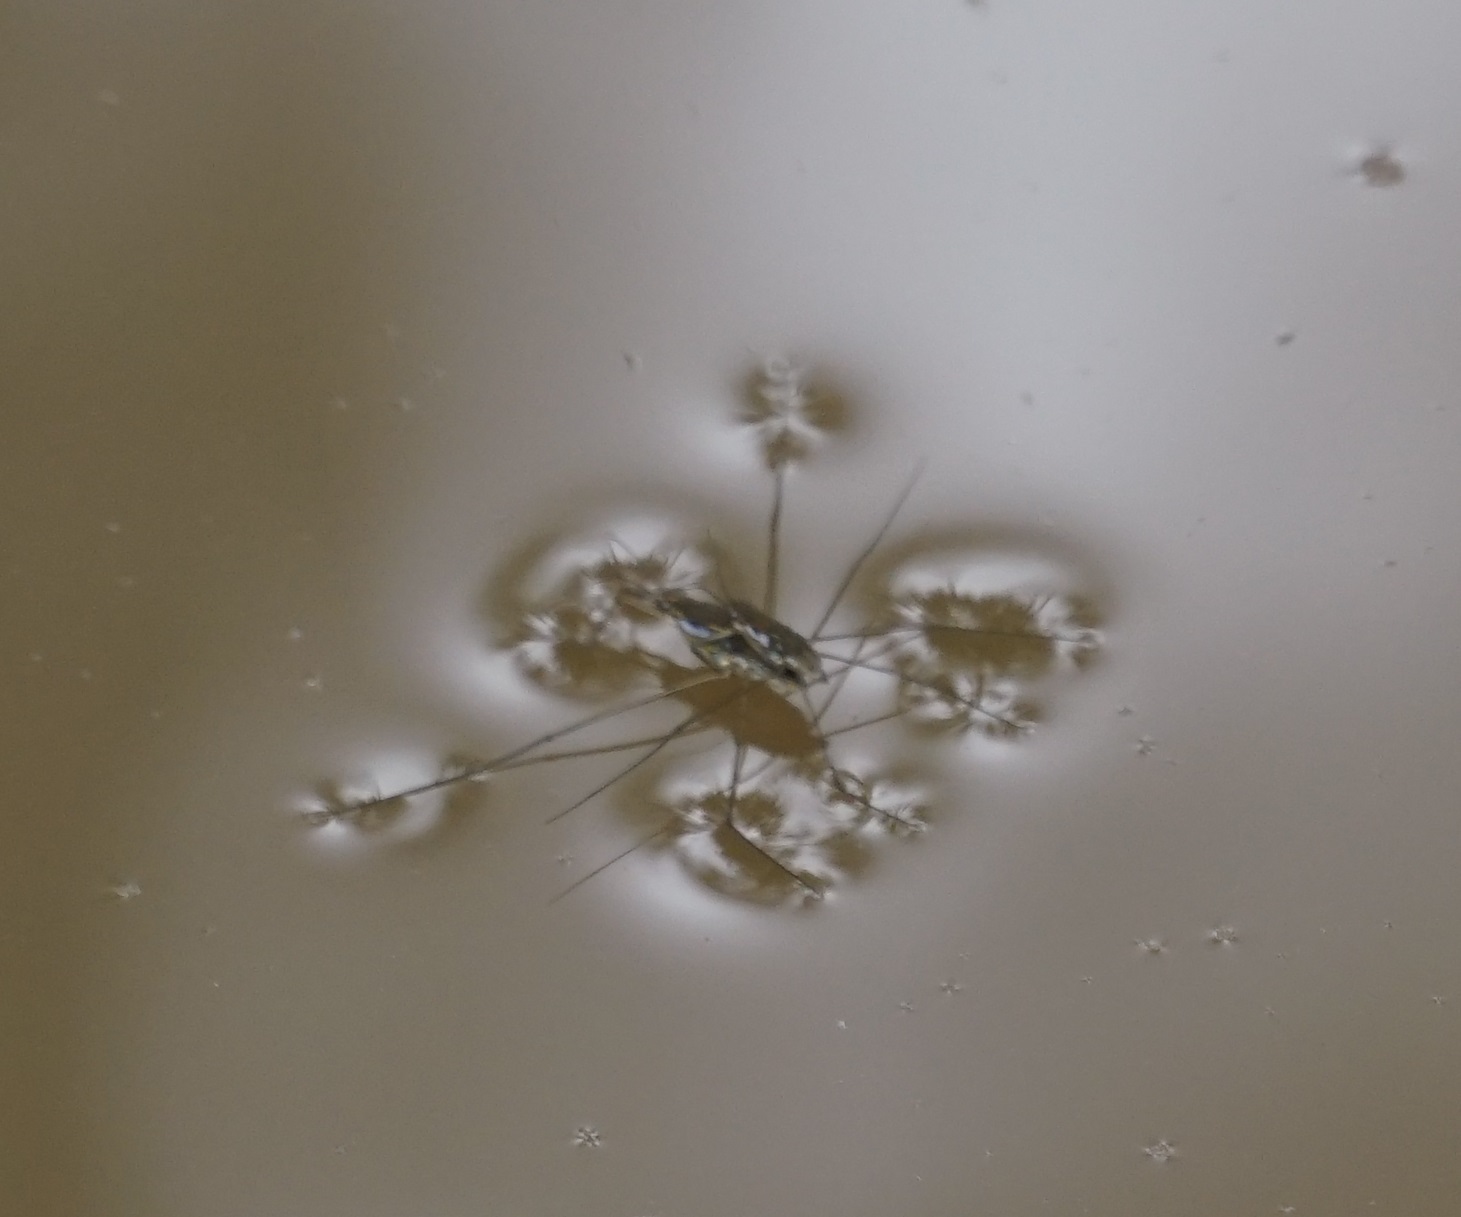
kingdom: Animalia
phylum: Arthropoda
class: Insecta
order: Hemiptera
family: Gerridae
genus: Tenagogerris
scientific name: Tenagogerris euphrosyne
